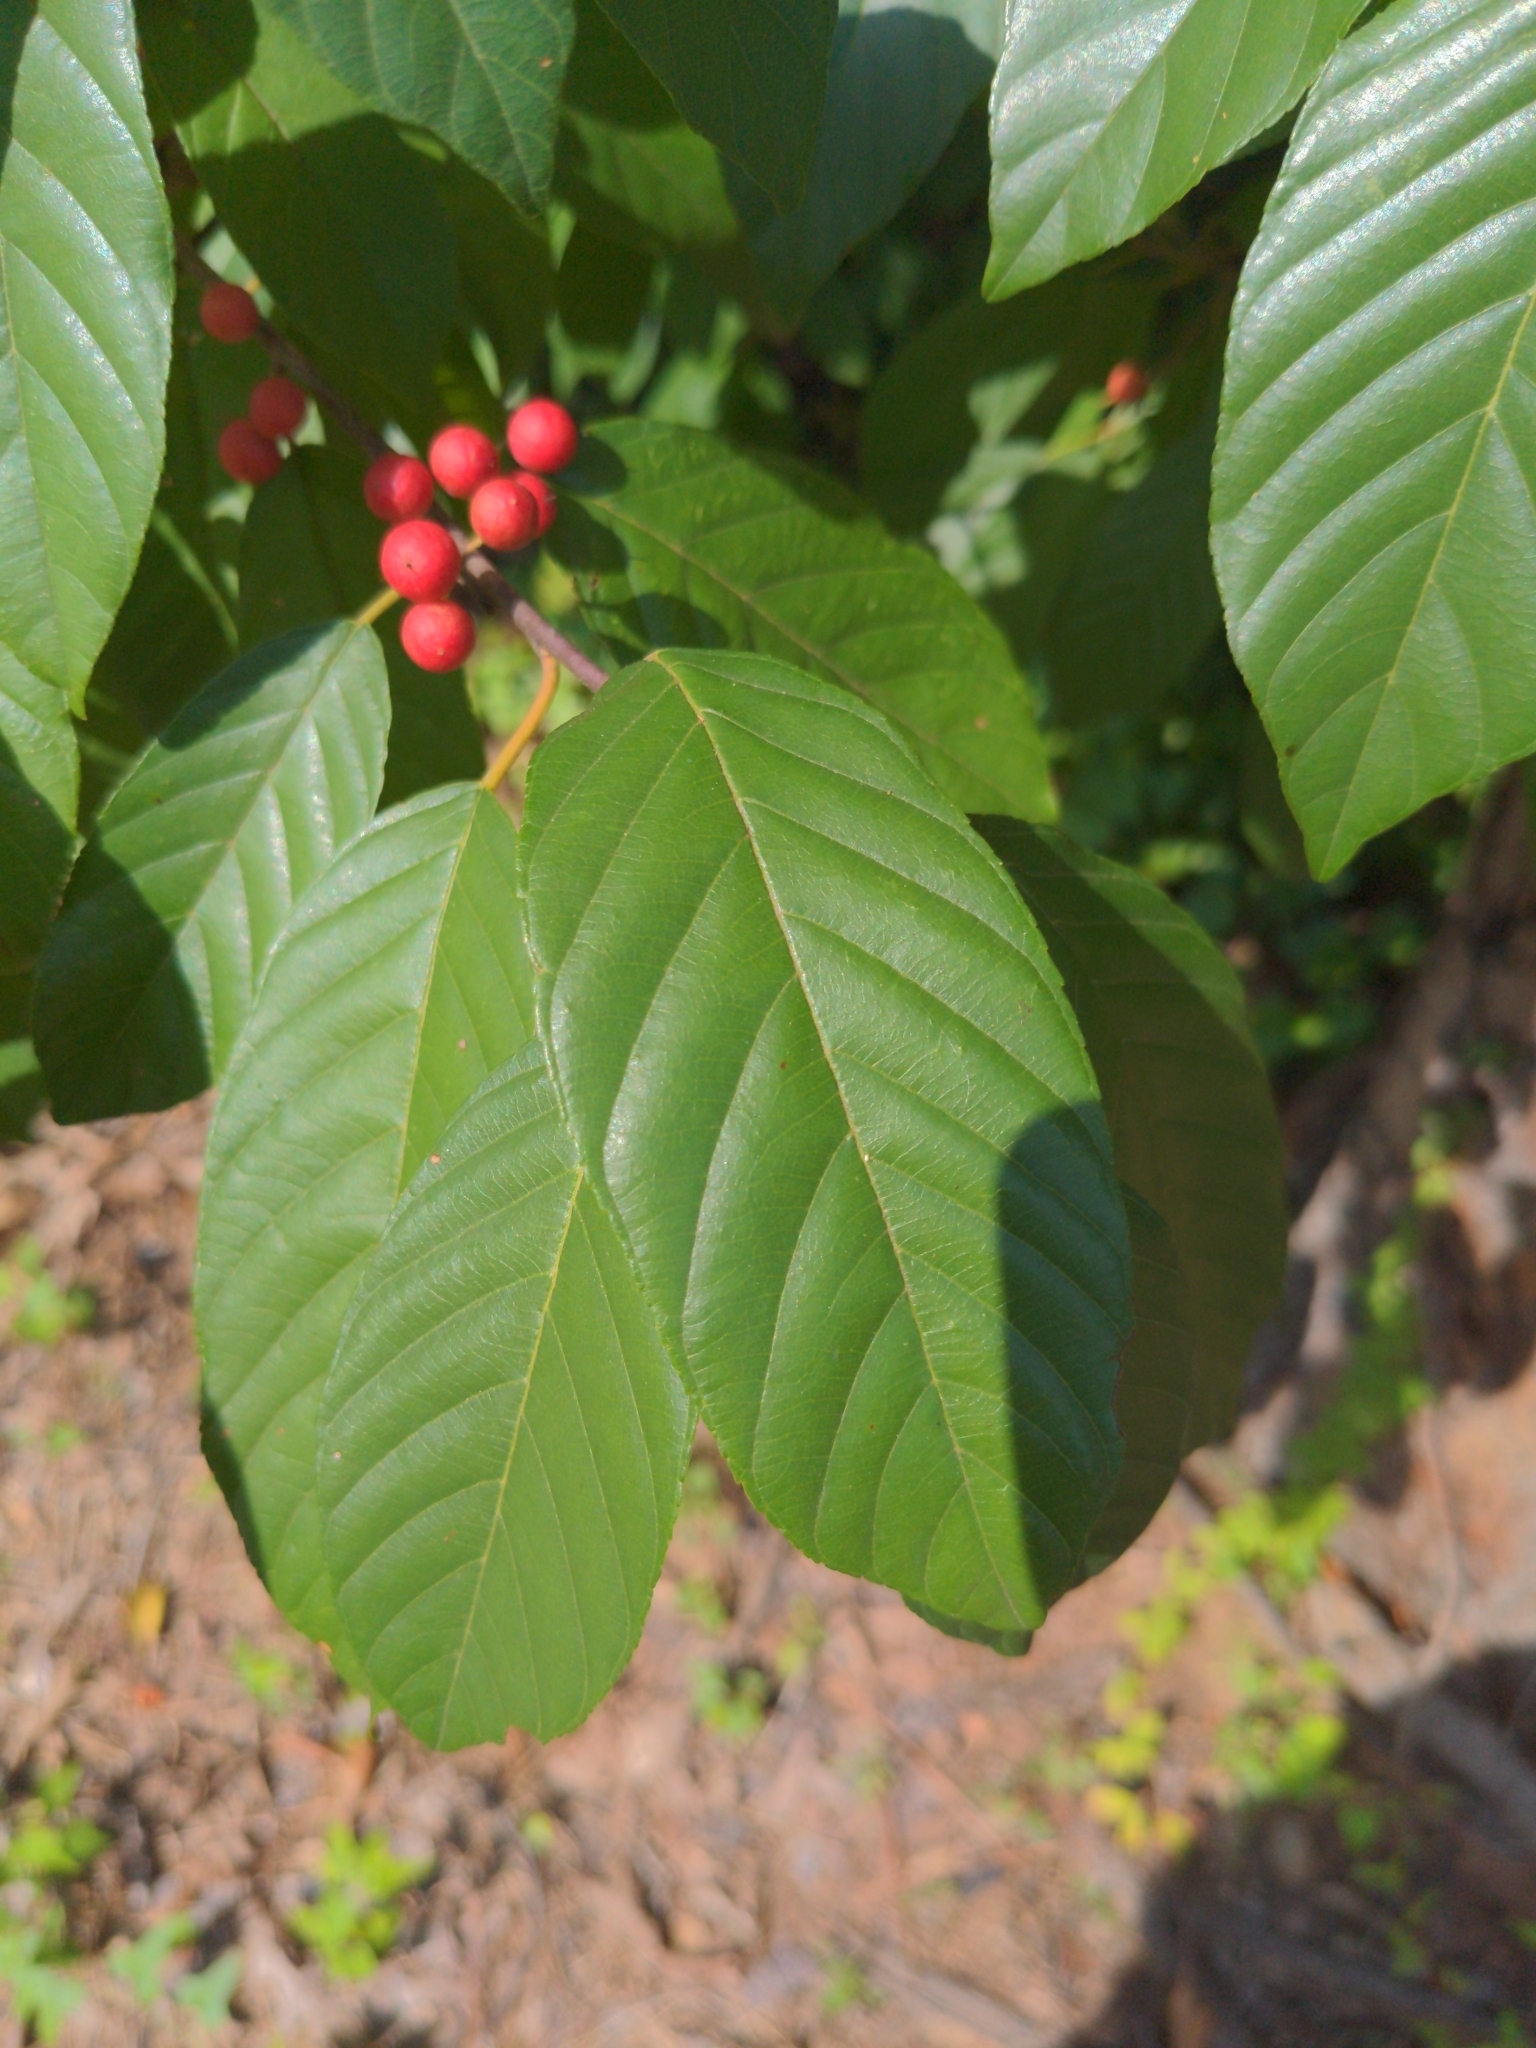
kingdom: Plantae
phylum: Tracheophyta
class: Magnoliopsida
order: Rosales
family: Rhamnaceae
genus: Frangula
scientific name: Frangula caroliniana
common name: Carolina buckthorn
